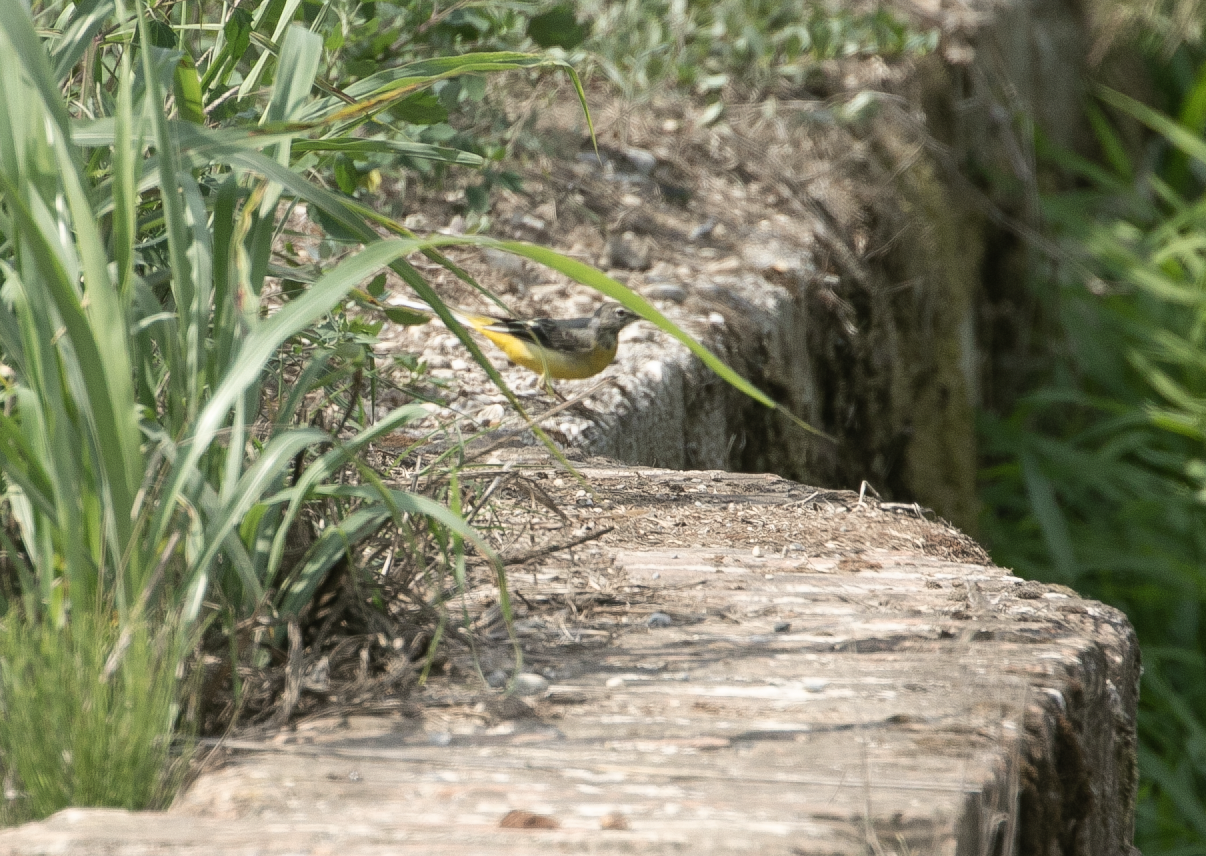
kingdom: Animalia
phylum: Chordata
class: Aves
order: Passeriformes
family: Motacillidae
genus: Motacilla
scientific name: Motacilla cinerea
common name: Grey wagtail
